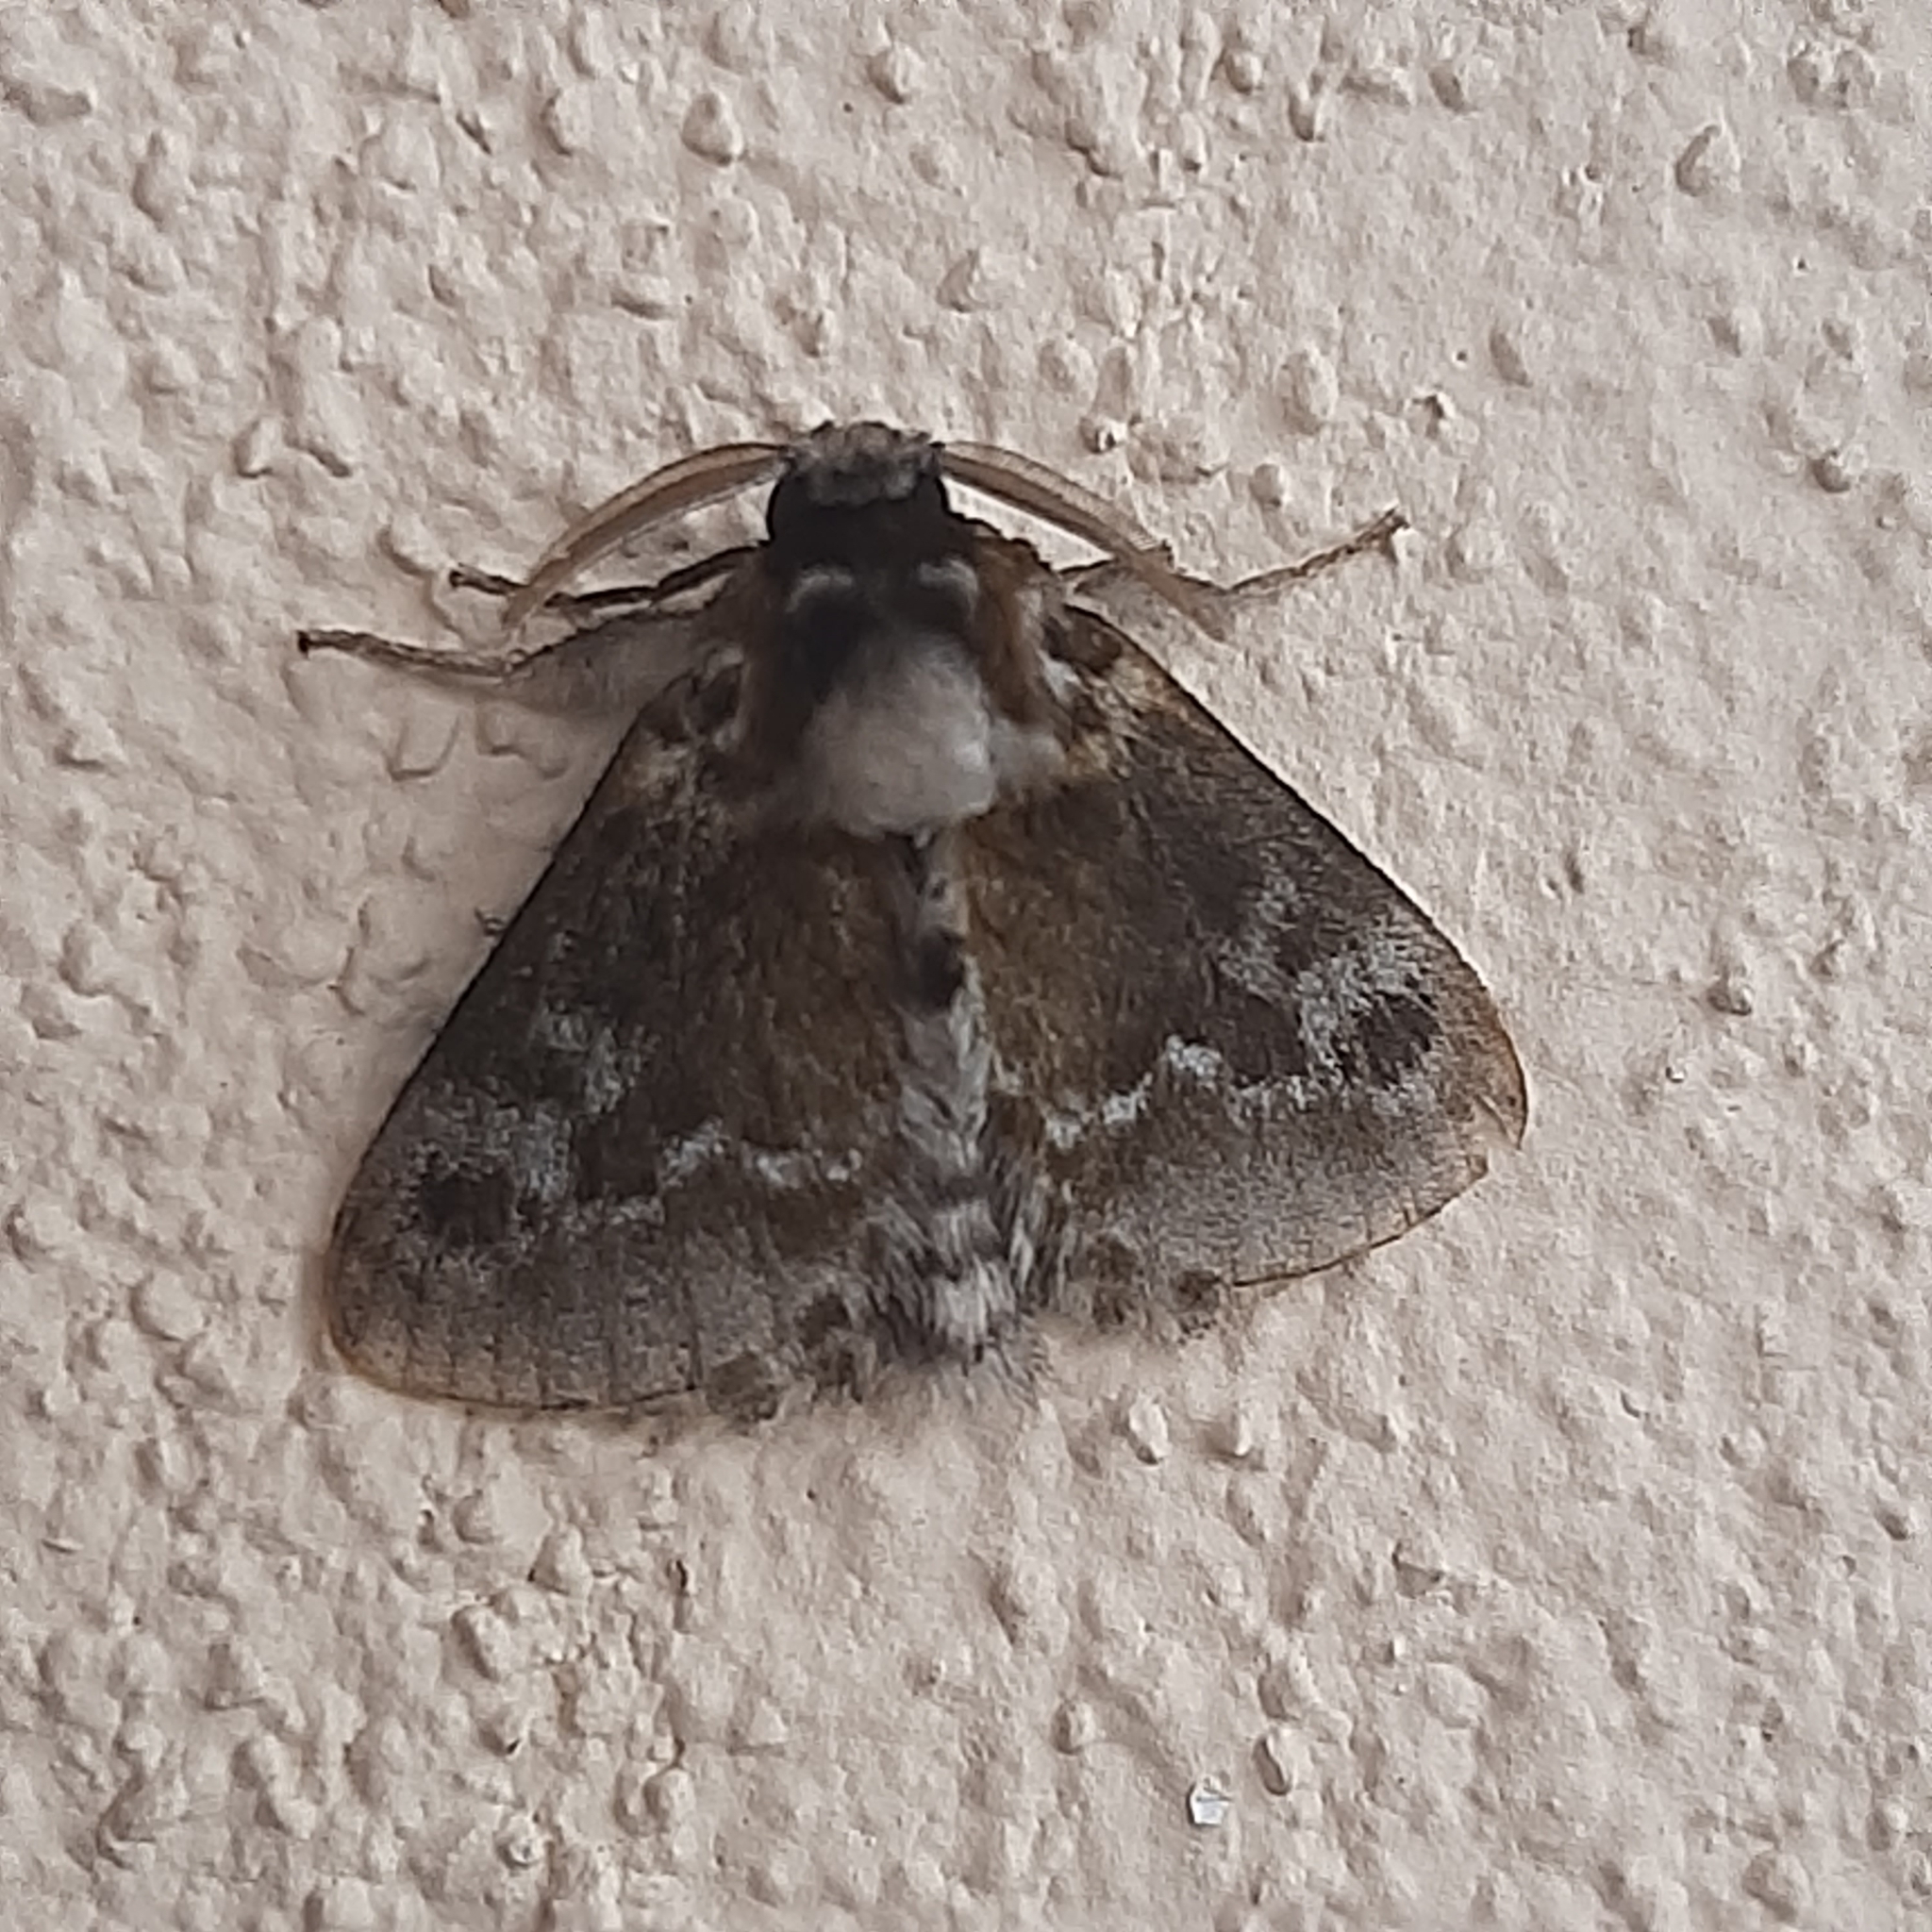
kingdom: Animalia
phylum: Arthropoda
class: Insecta
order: Lepidoptera
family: Megalopygidae
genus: Podalia
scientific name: Podalia habitus
